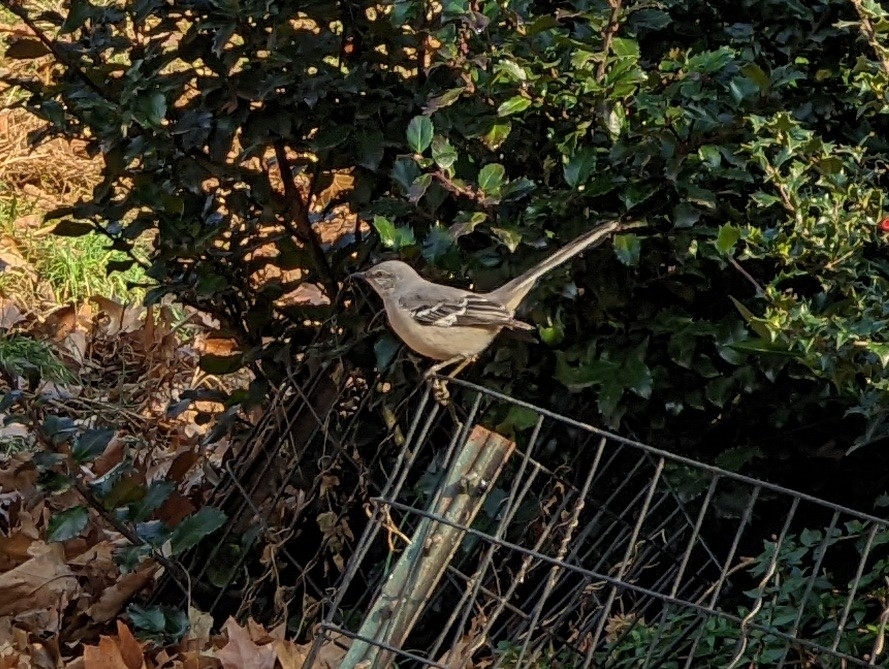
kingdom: Animalia
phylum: Chordata
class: Aves
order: Passeriformes
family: Mimidae
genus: Mimus
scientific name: Mimus polyglottos
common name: Northern mockingbird
